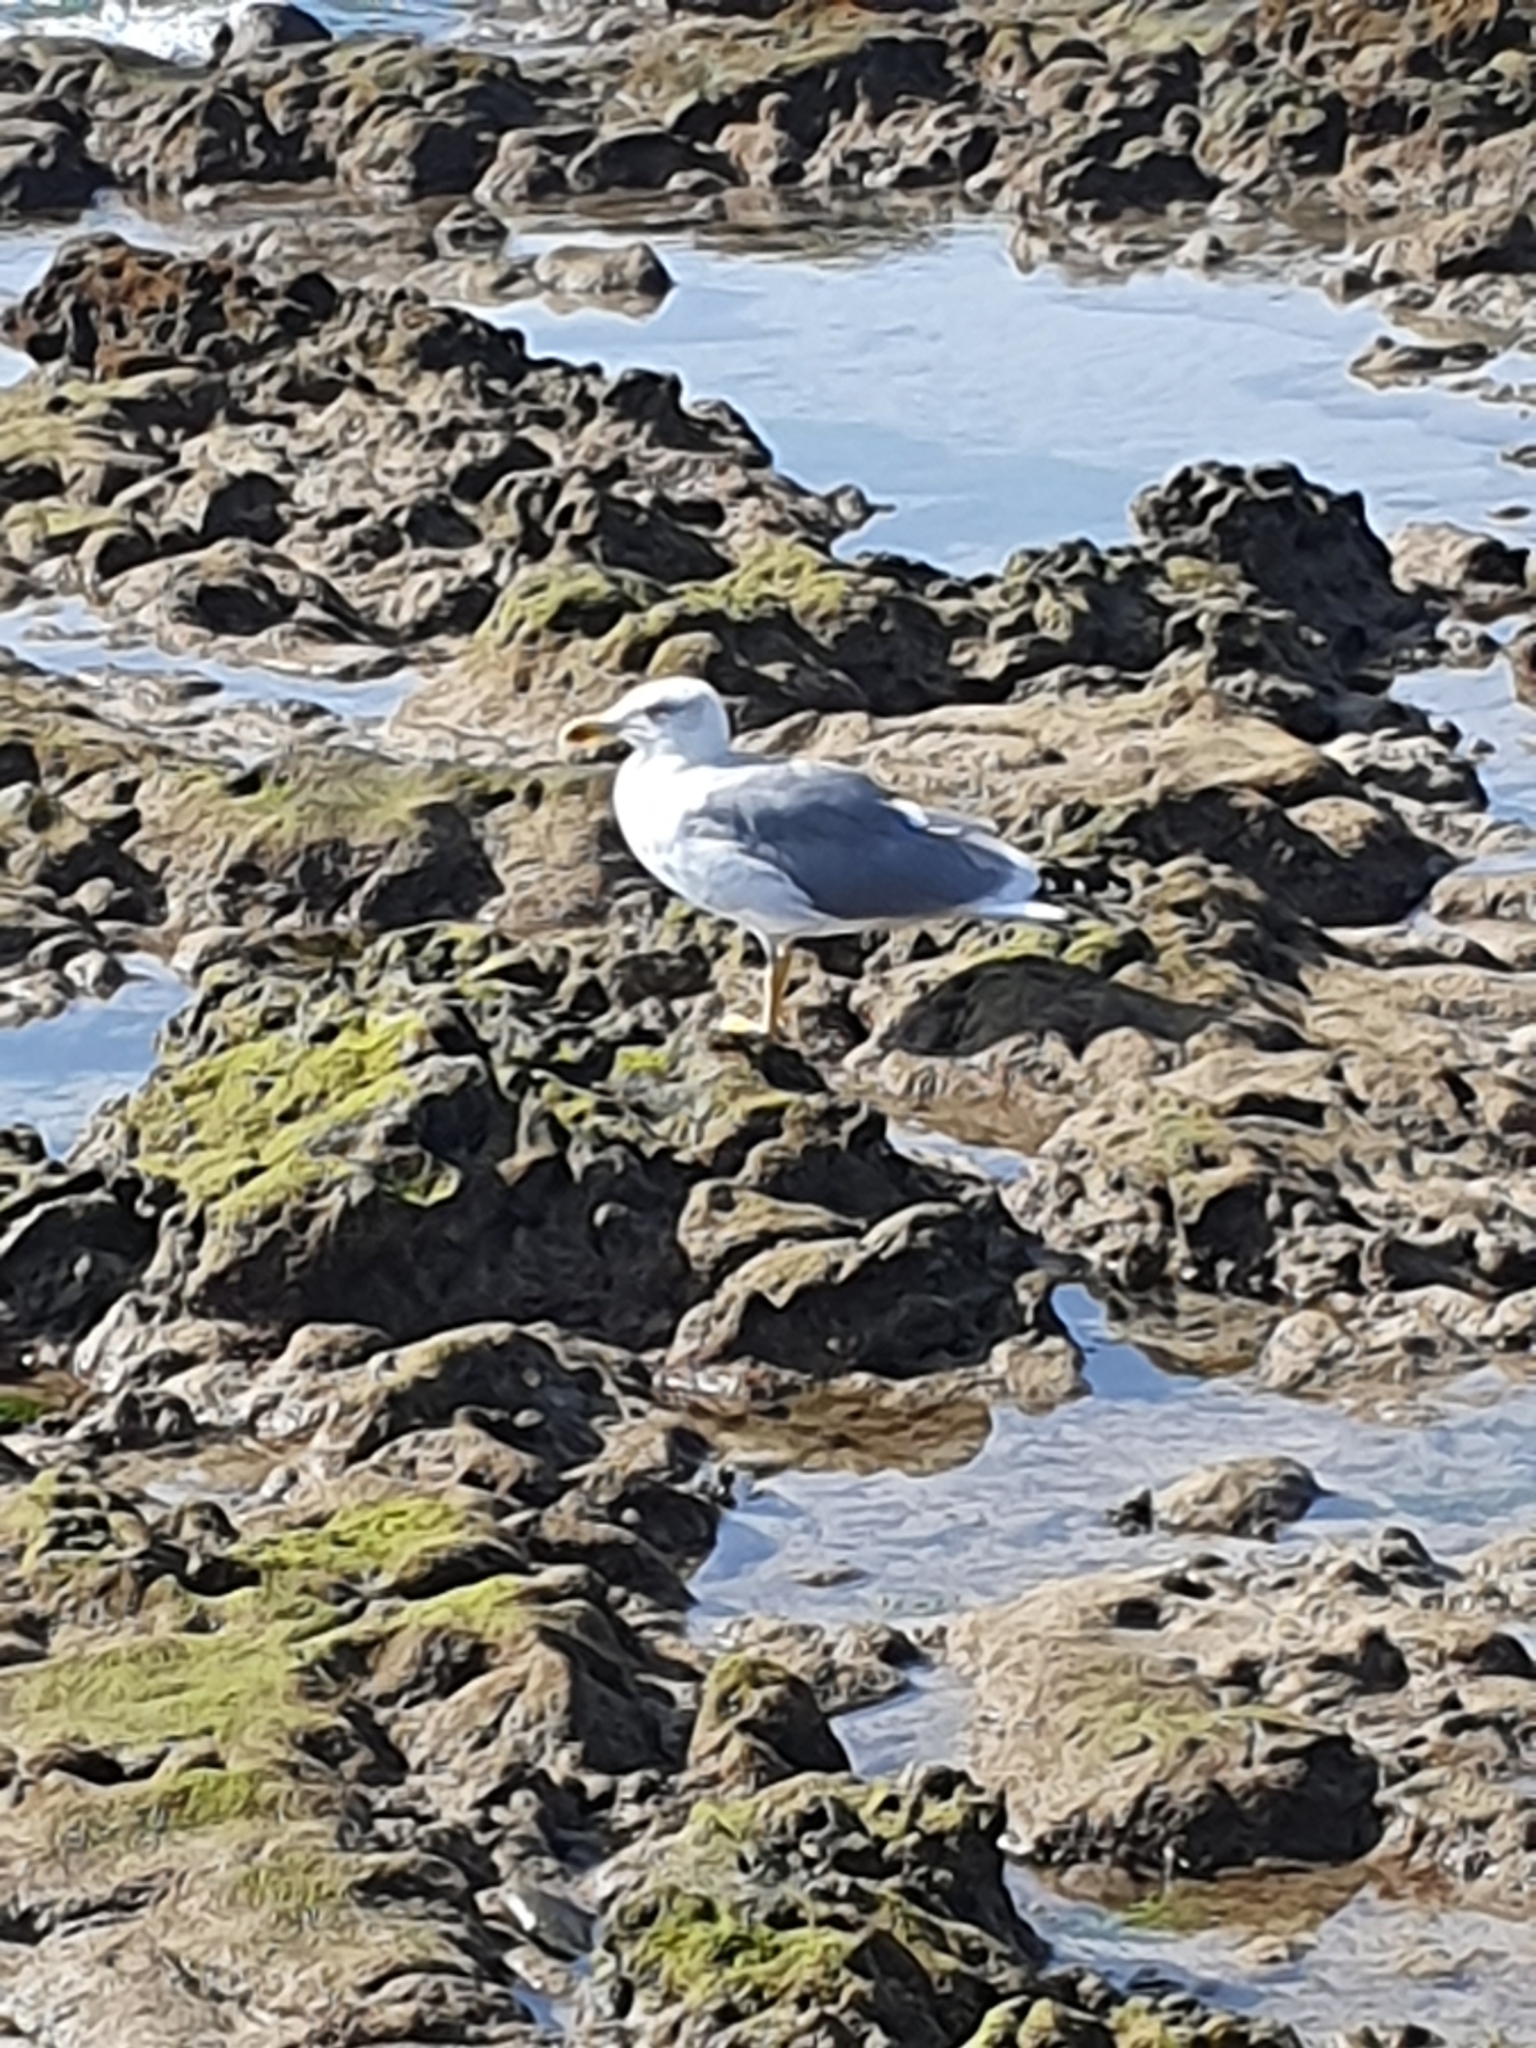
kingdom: Animalia
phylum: Chordata
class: Aves
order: Charadriiformes
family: Laridae
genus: Larus
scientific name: Larus michahellis
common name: Yellow-legged gull
